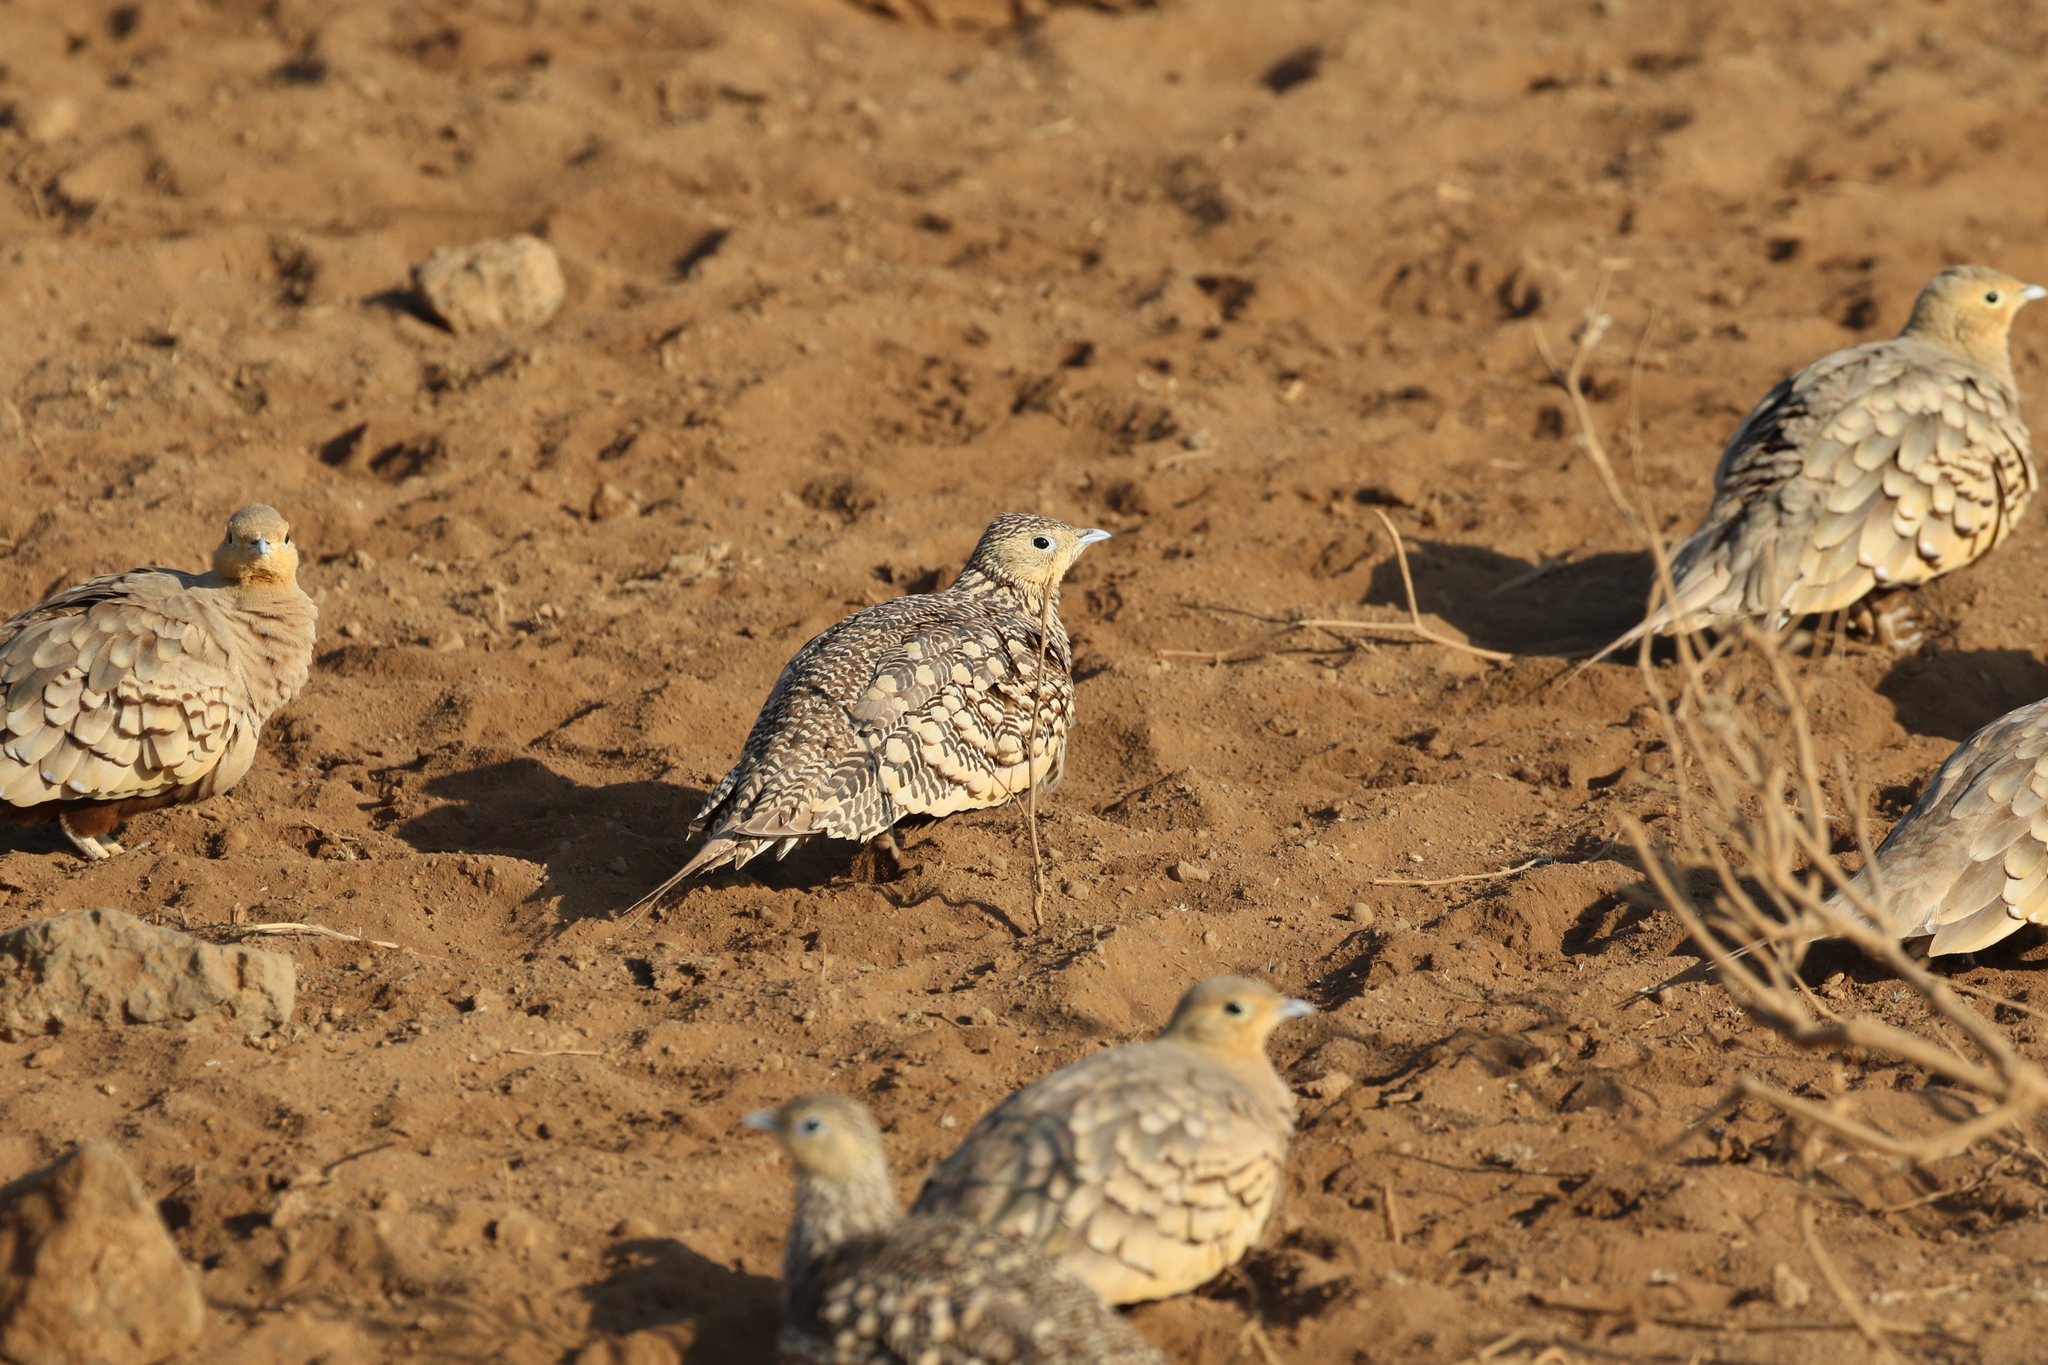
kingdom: Animalia
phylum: Chordata
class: Aves
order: Pteroclidiformes
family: Pteroclididae
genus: Pterocles
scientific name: Pterocles exustus
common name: Chestnut-bellied sandgrouse
